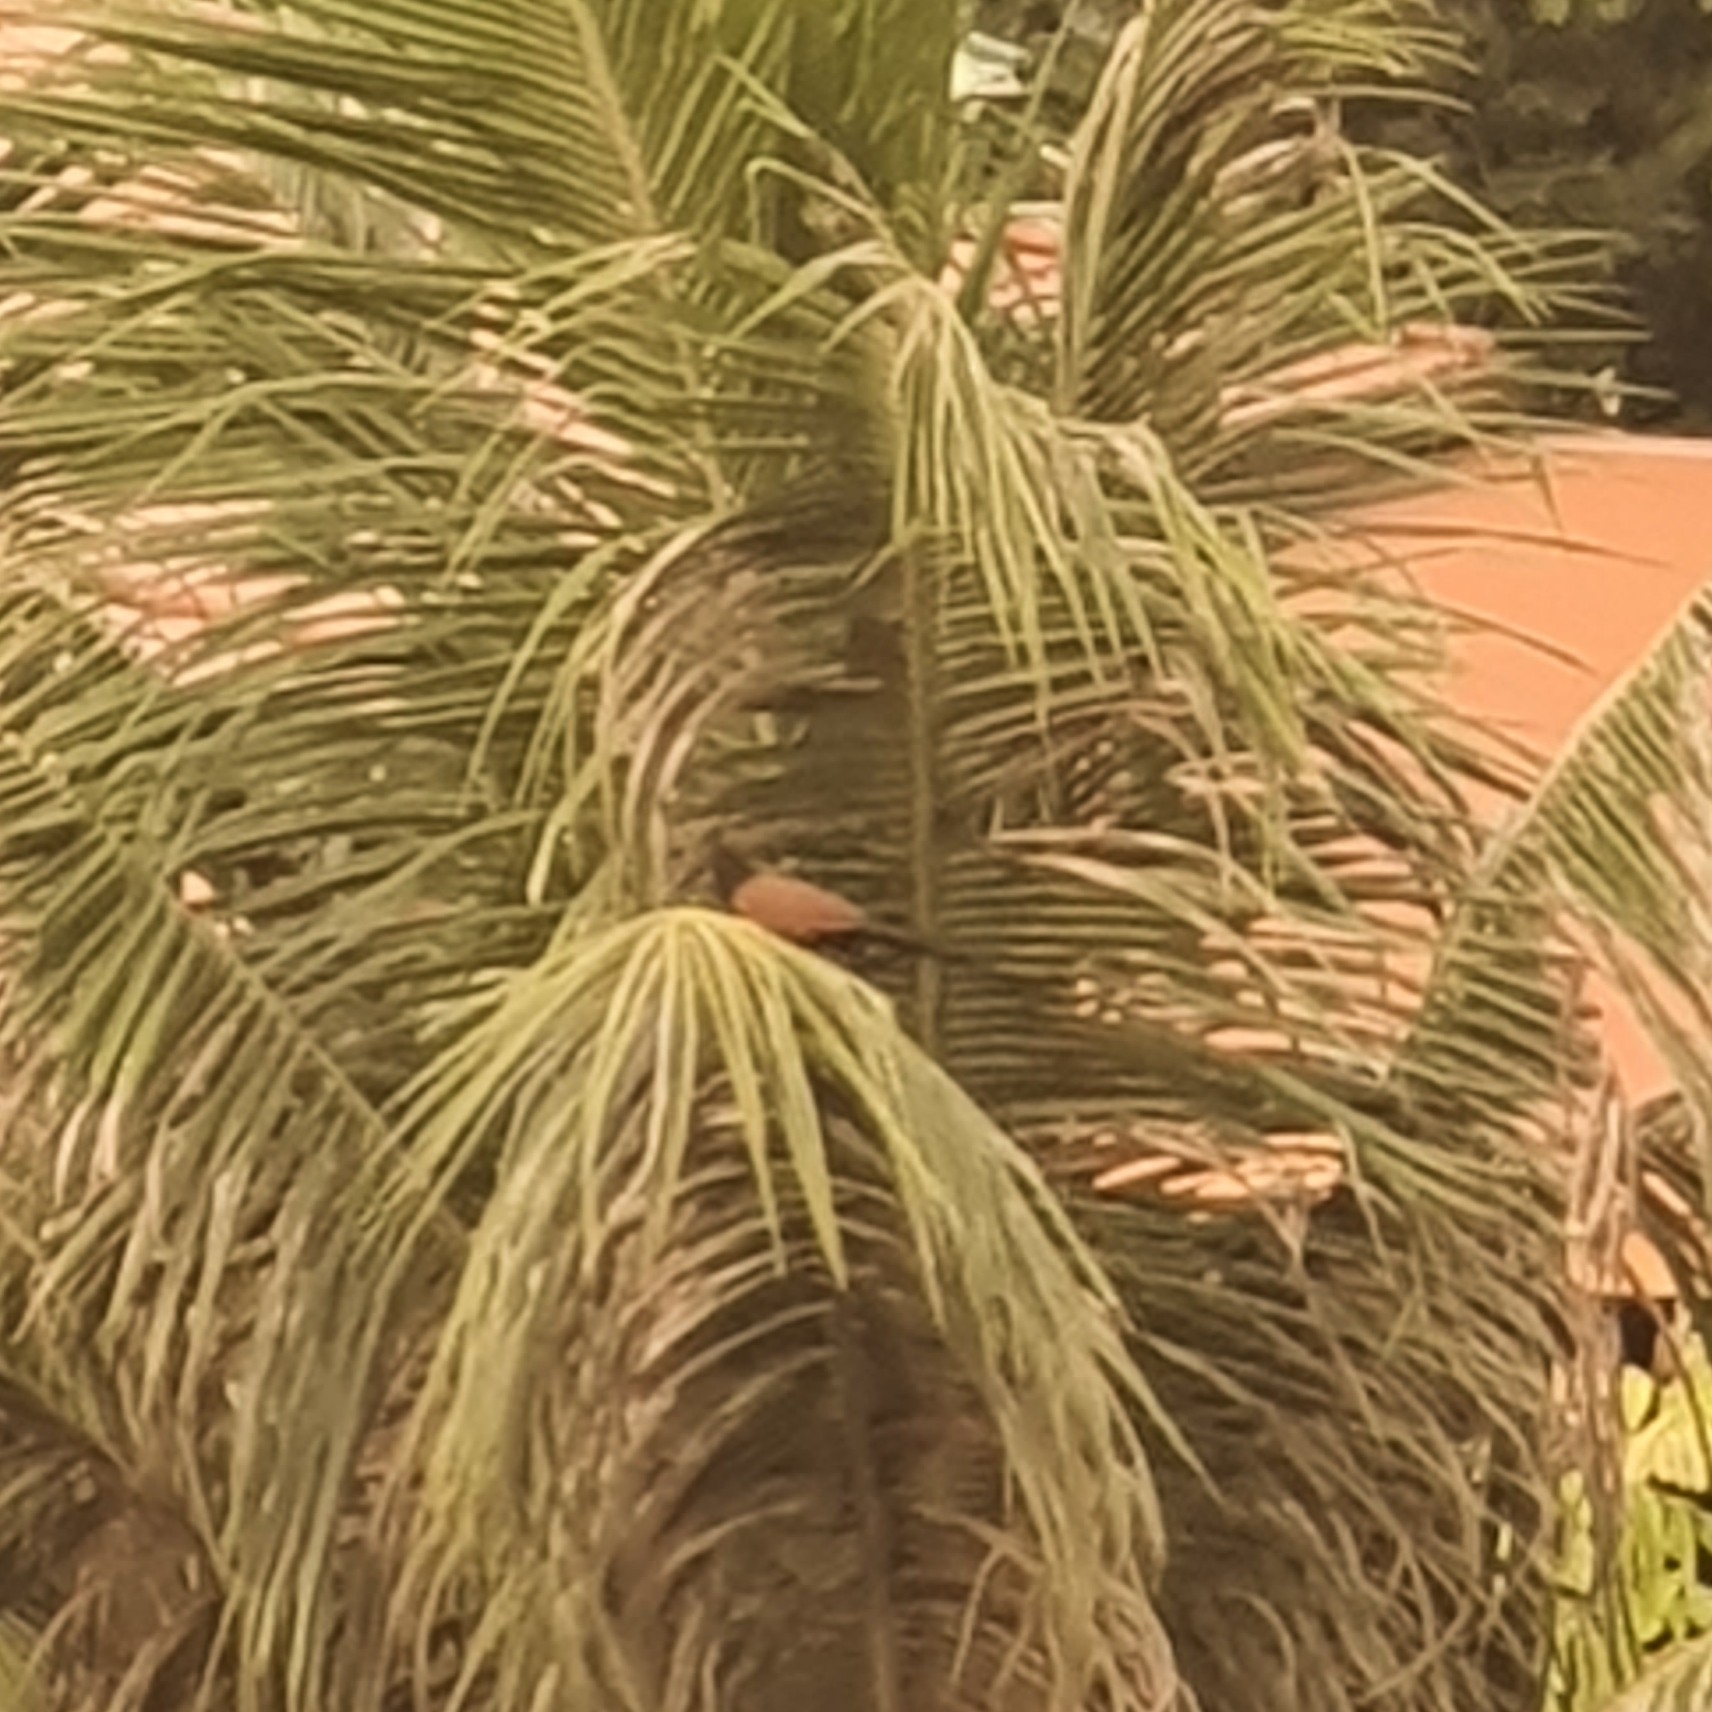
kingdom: Animalia
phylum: Chordata
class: Aves
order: Cuculiformes
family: Cuculidae
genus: Centropus
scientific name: Centropus sinensis
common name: Greater coucal
